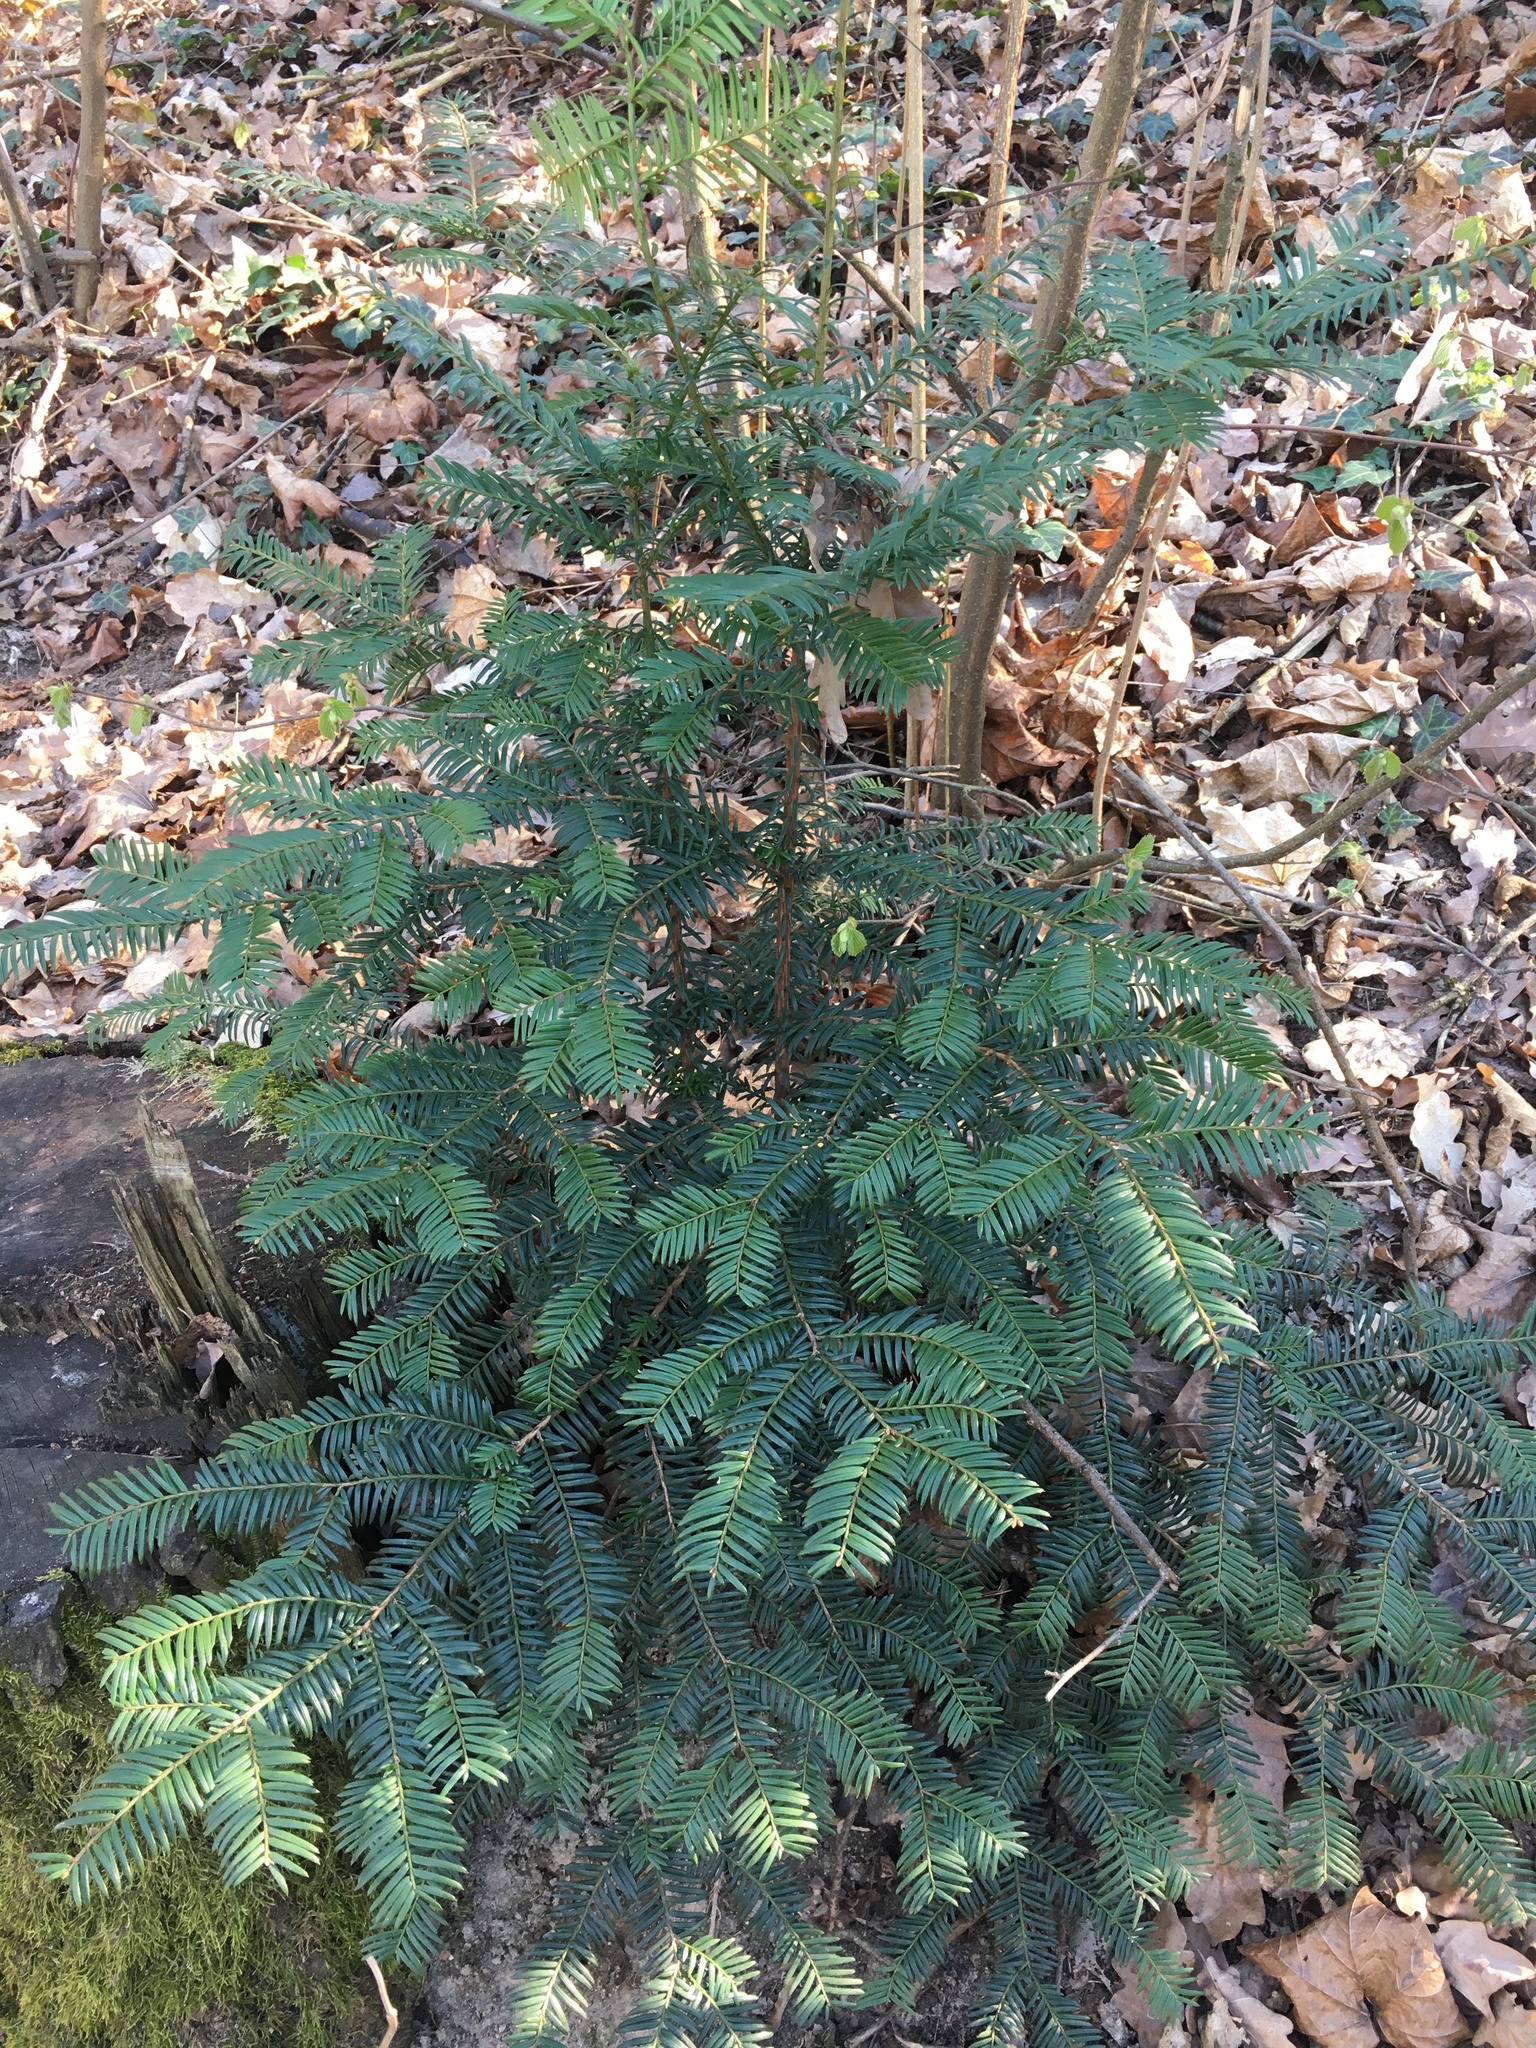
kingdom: Plantae
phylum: Tracheophyta
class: Pinopsida
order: Pinales
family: Taxaceae
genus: Taxus
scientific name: Taxus baccata
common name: Yew
